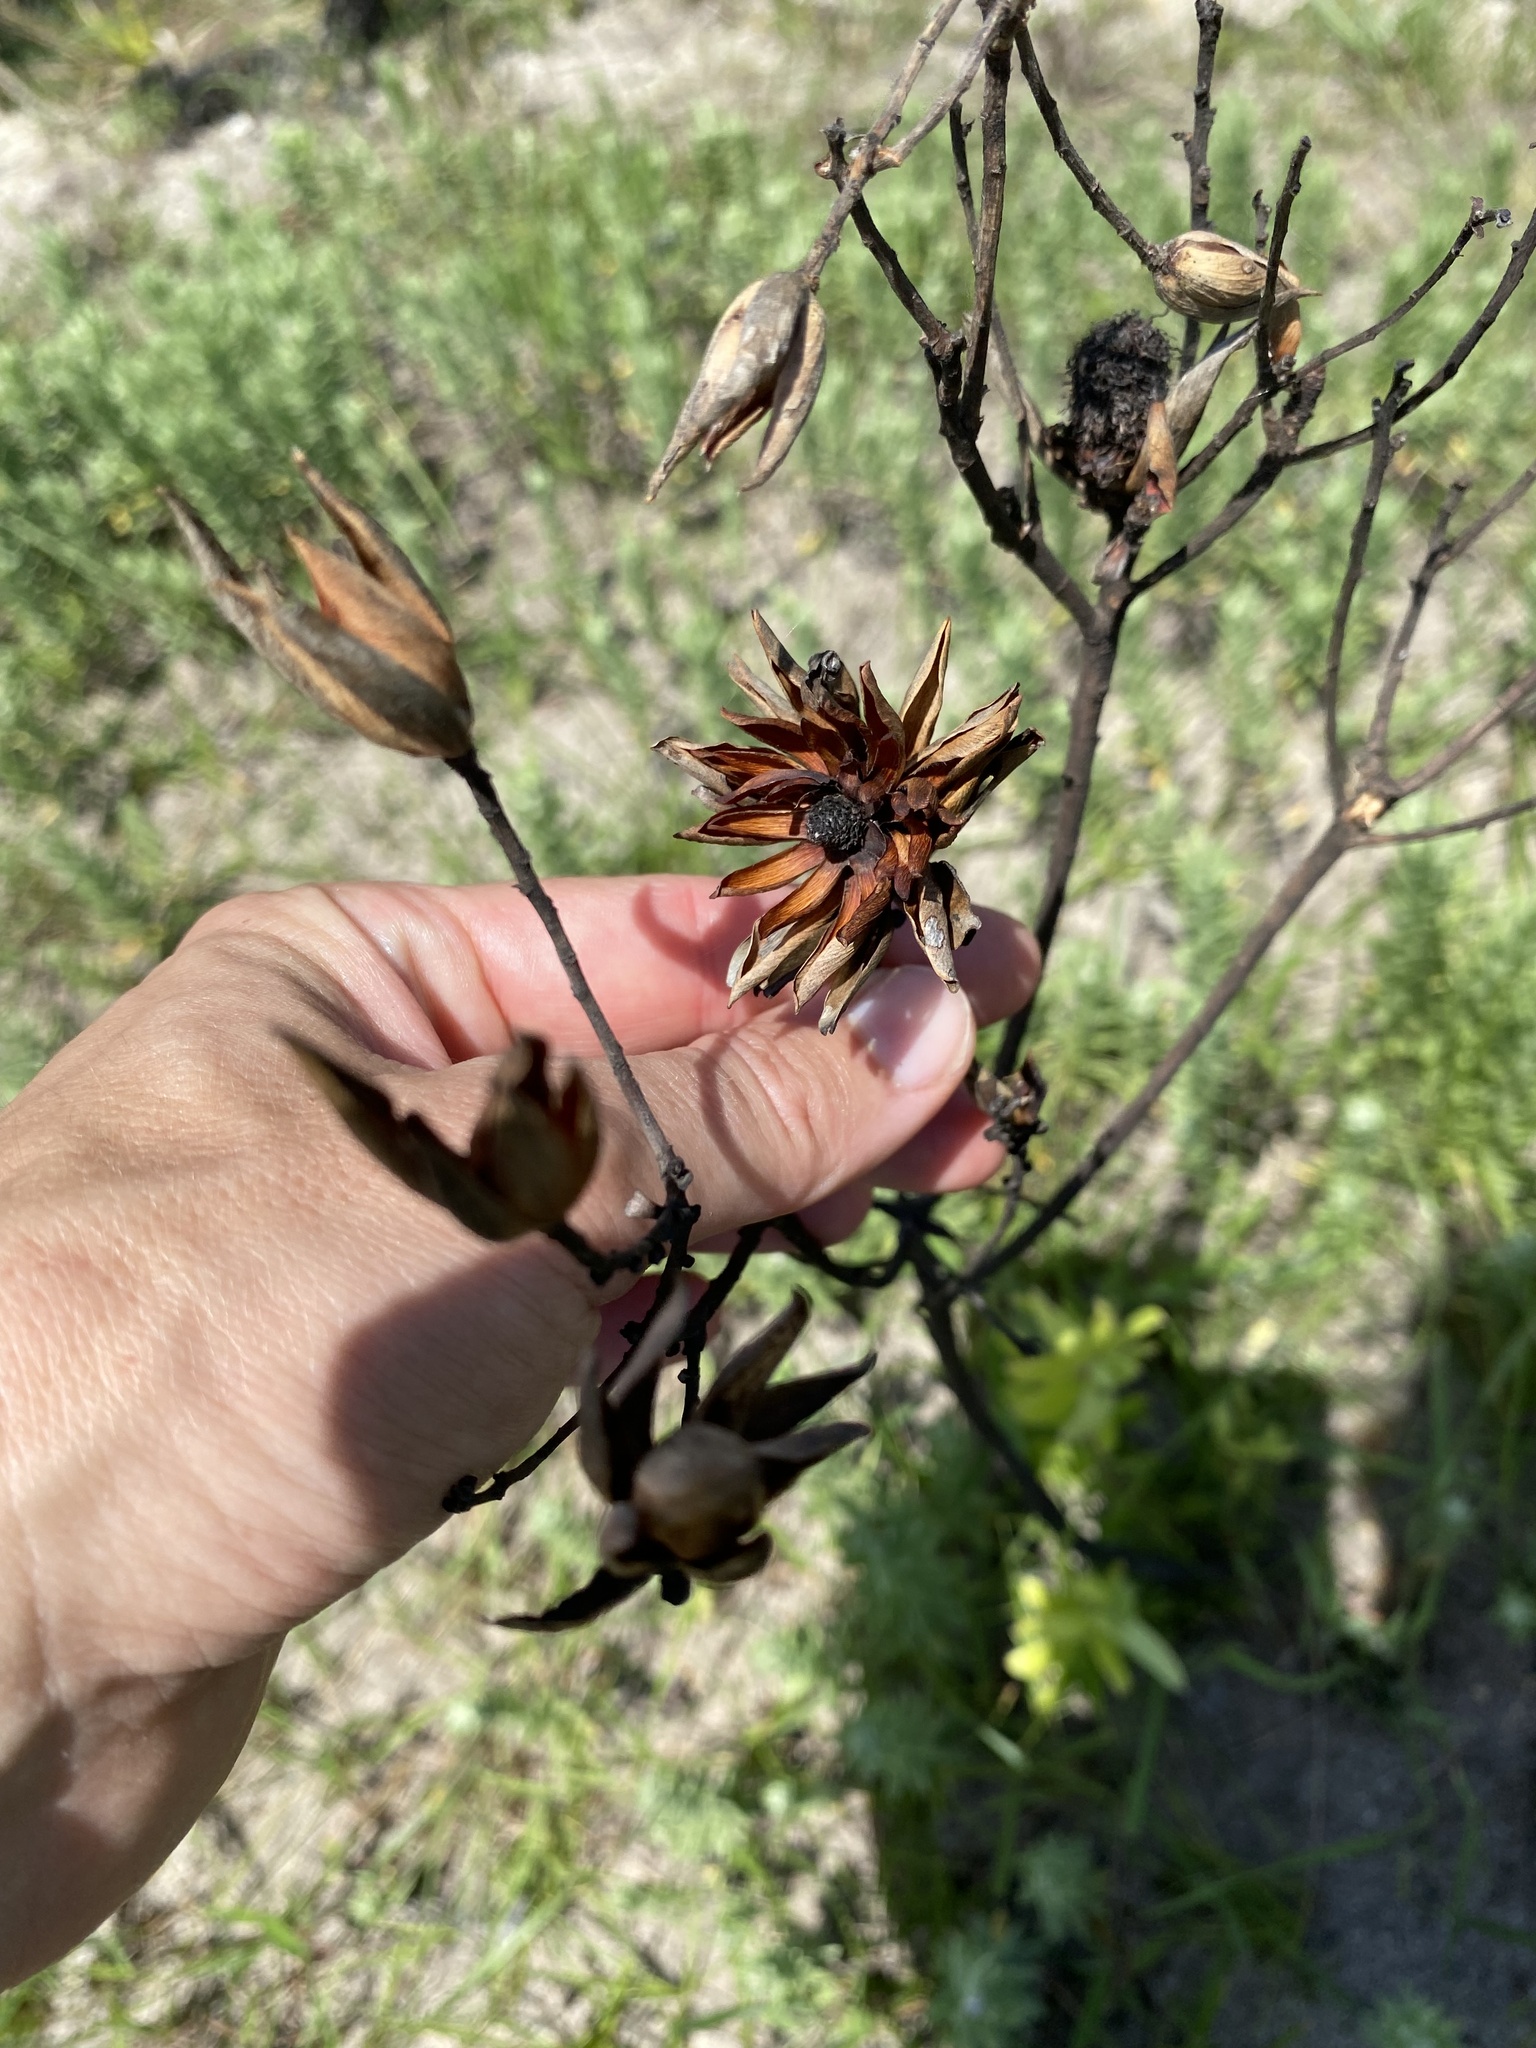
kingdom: Plantae
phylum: Tracheophyta
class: Magnoliopsida
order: Proteales
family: Proteaceae
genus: Leucadendron
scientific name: Leucadendron spissifolium
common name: Spear-leaf conebush
